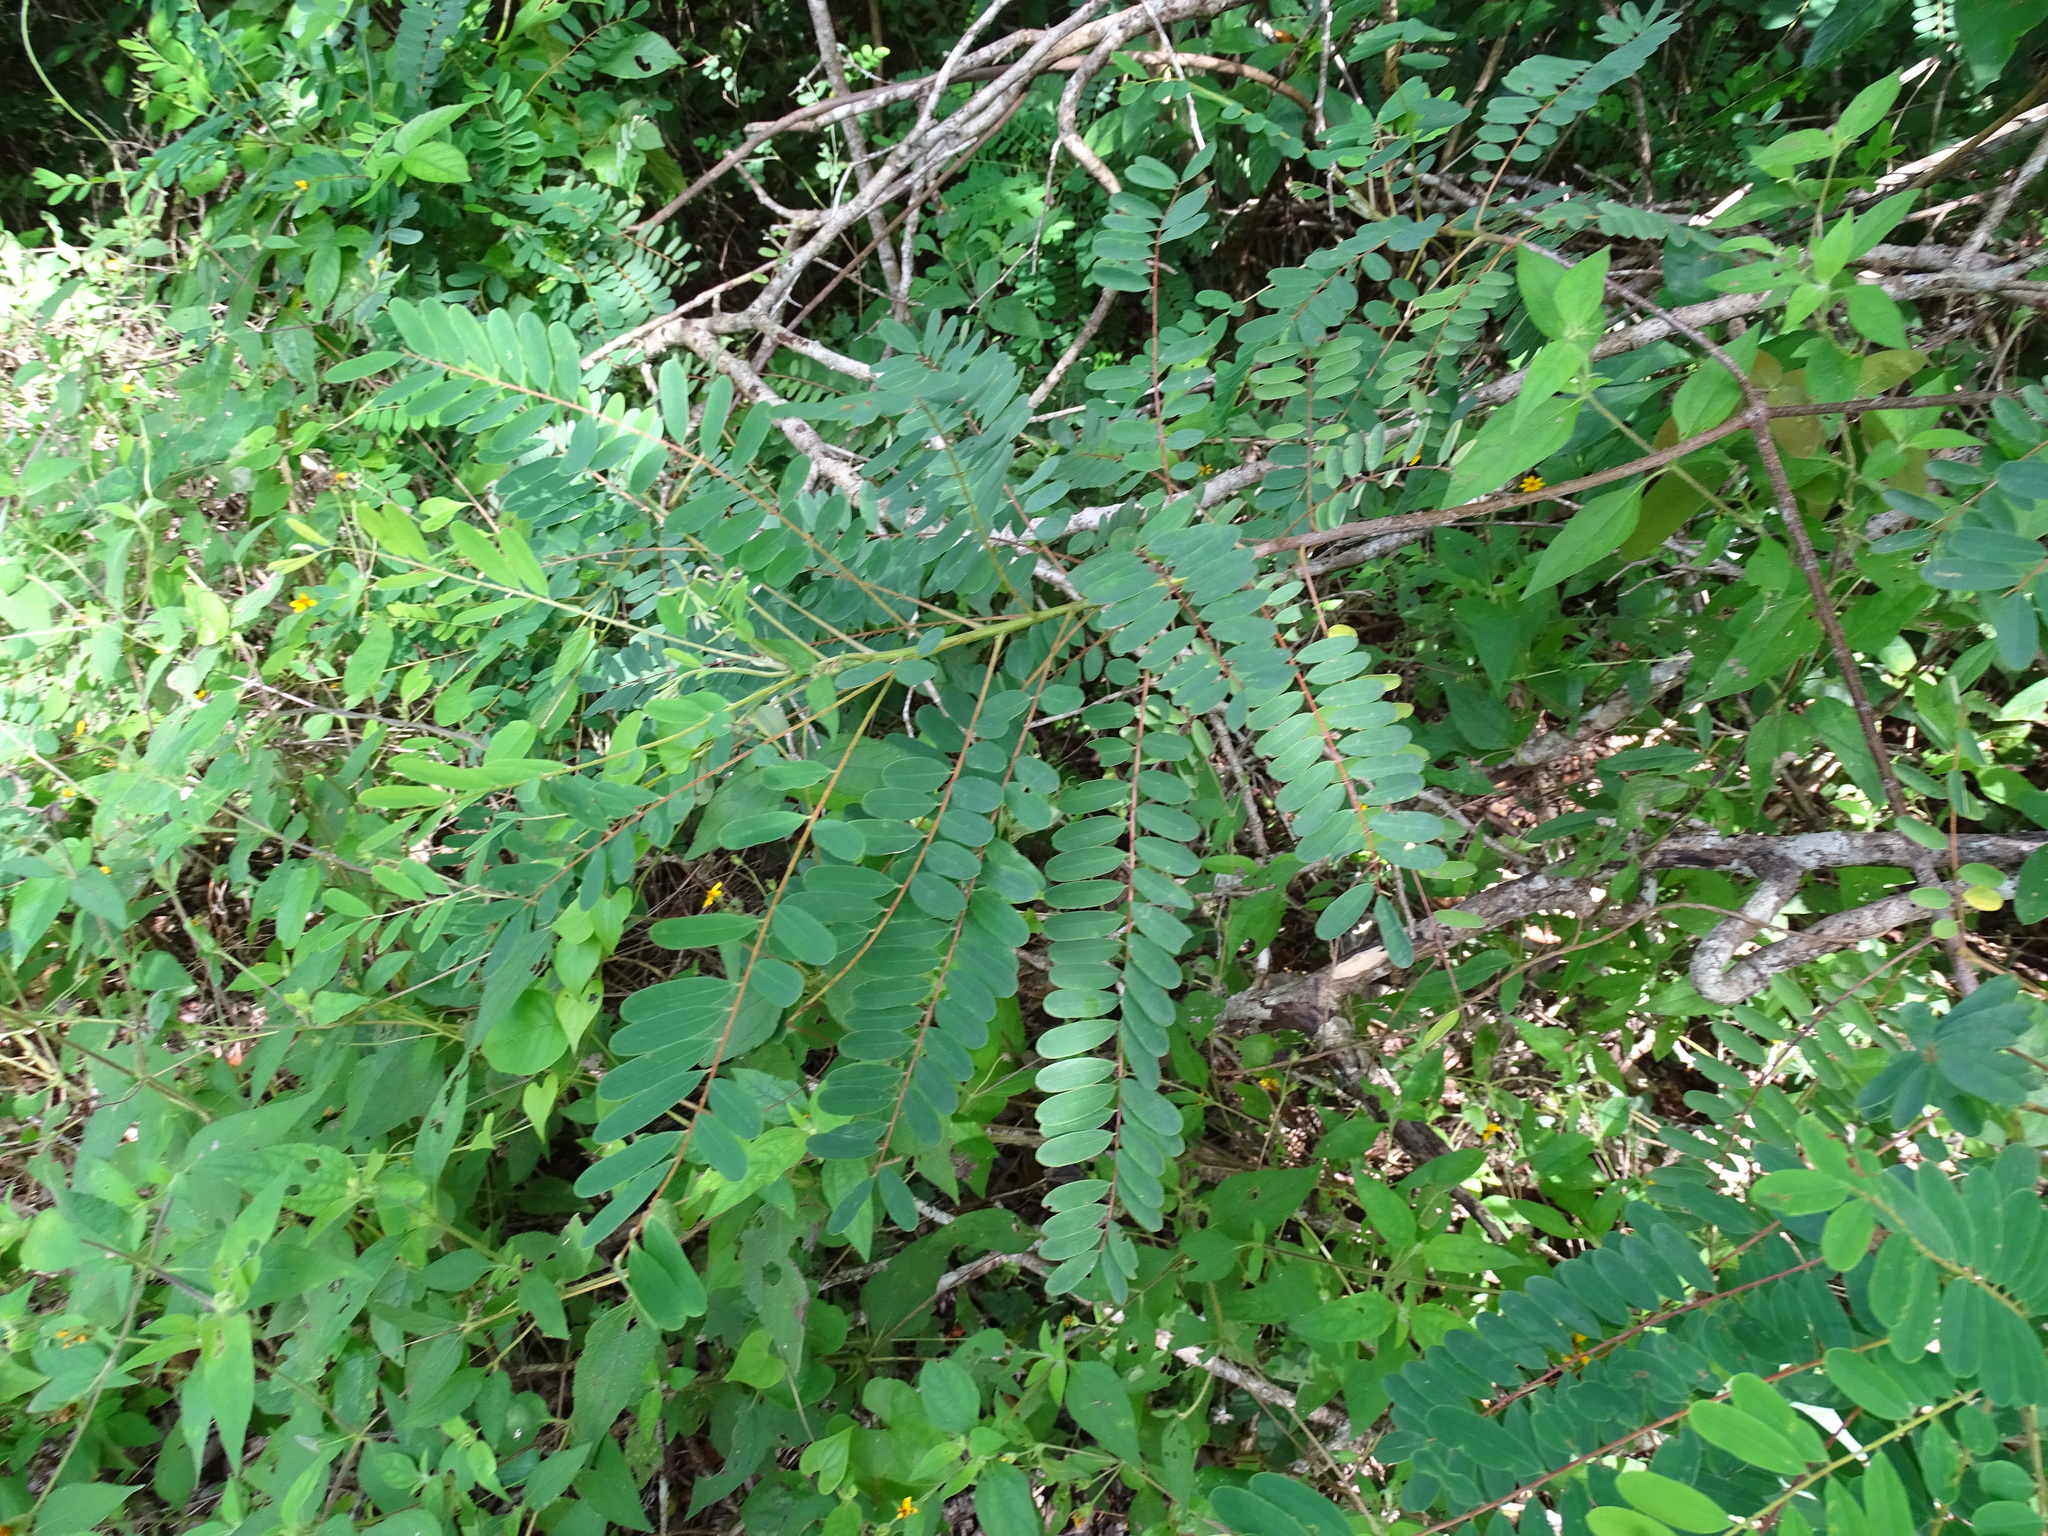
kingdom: Plantae
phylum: Tracheophyta
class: Magnoliopsida
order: Picramniales
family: Picramniaceae
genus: Alvaradoa
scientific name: Alvaradoa amorphoides
